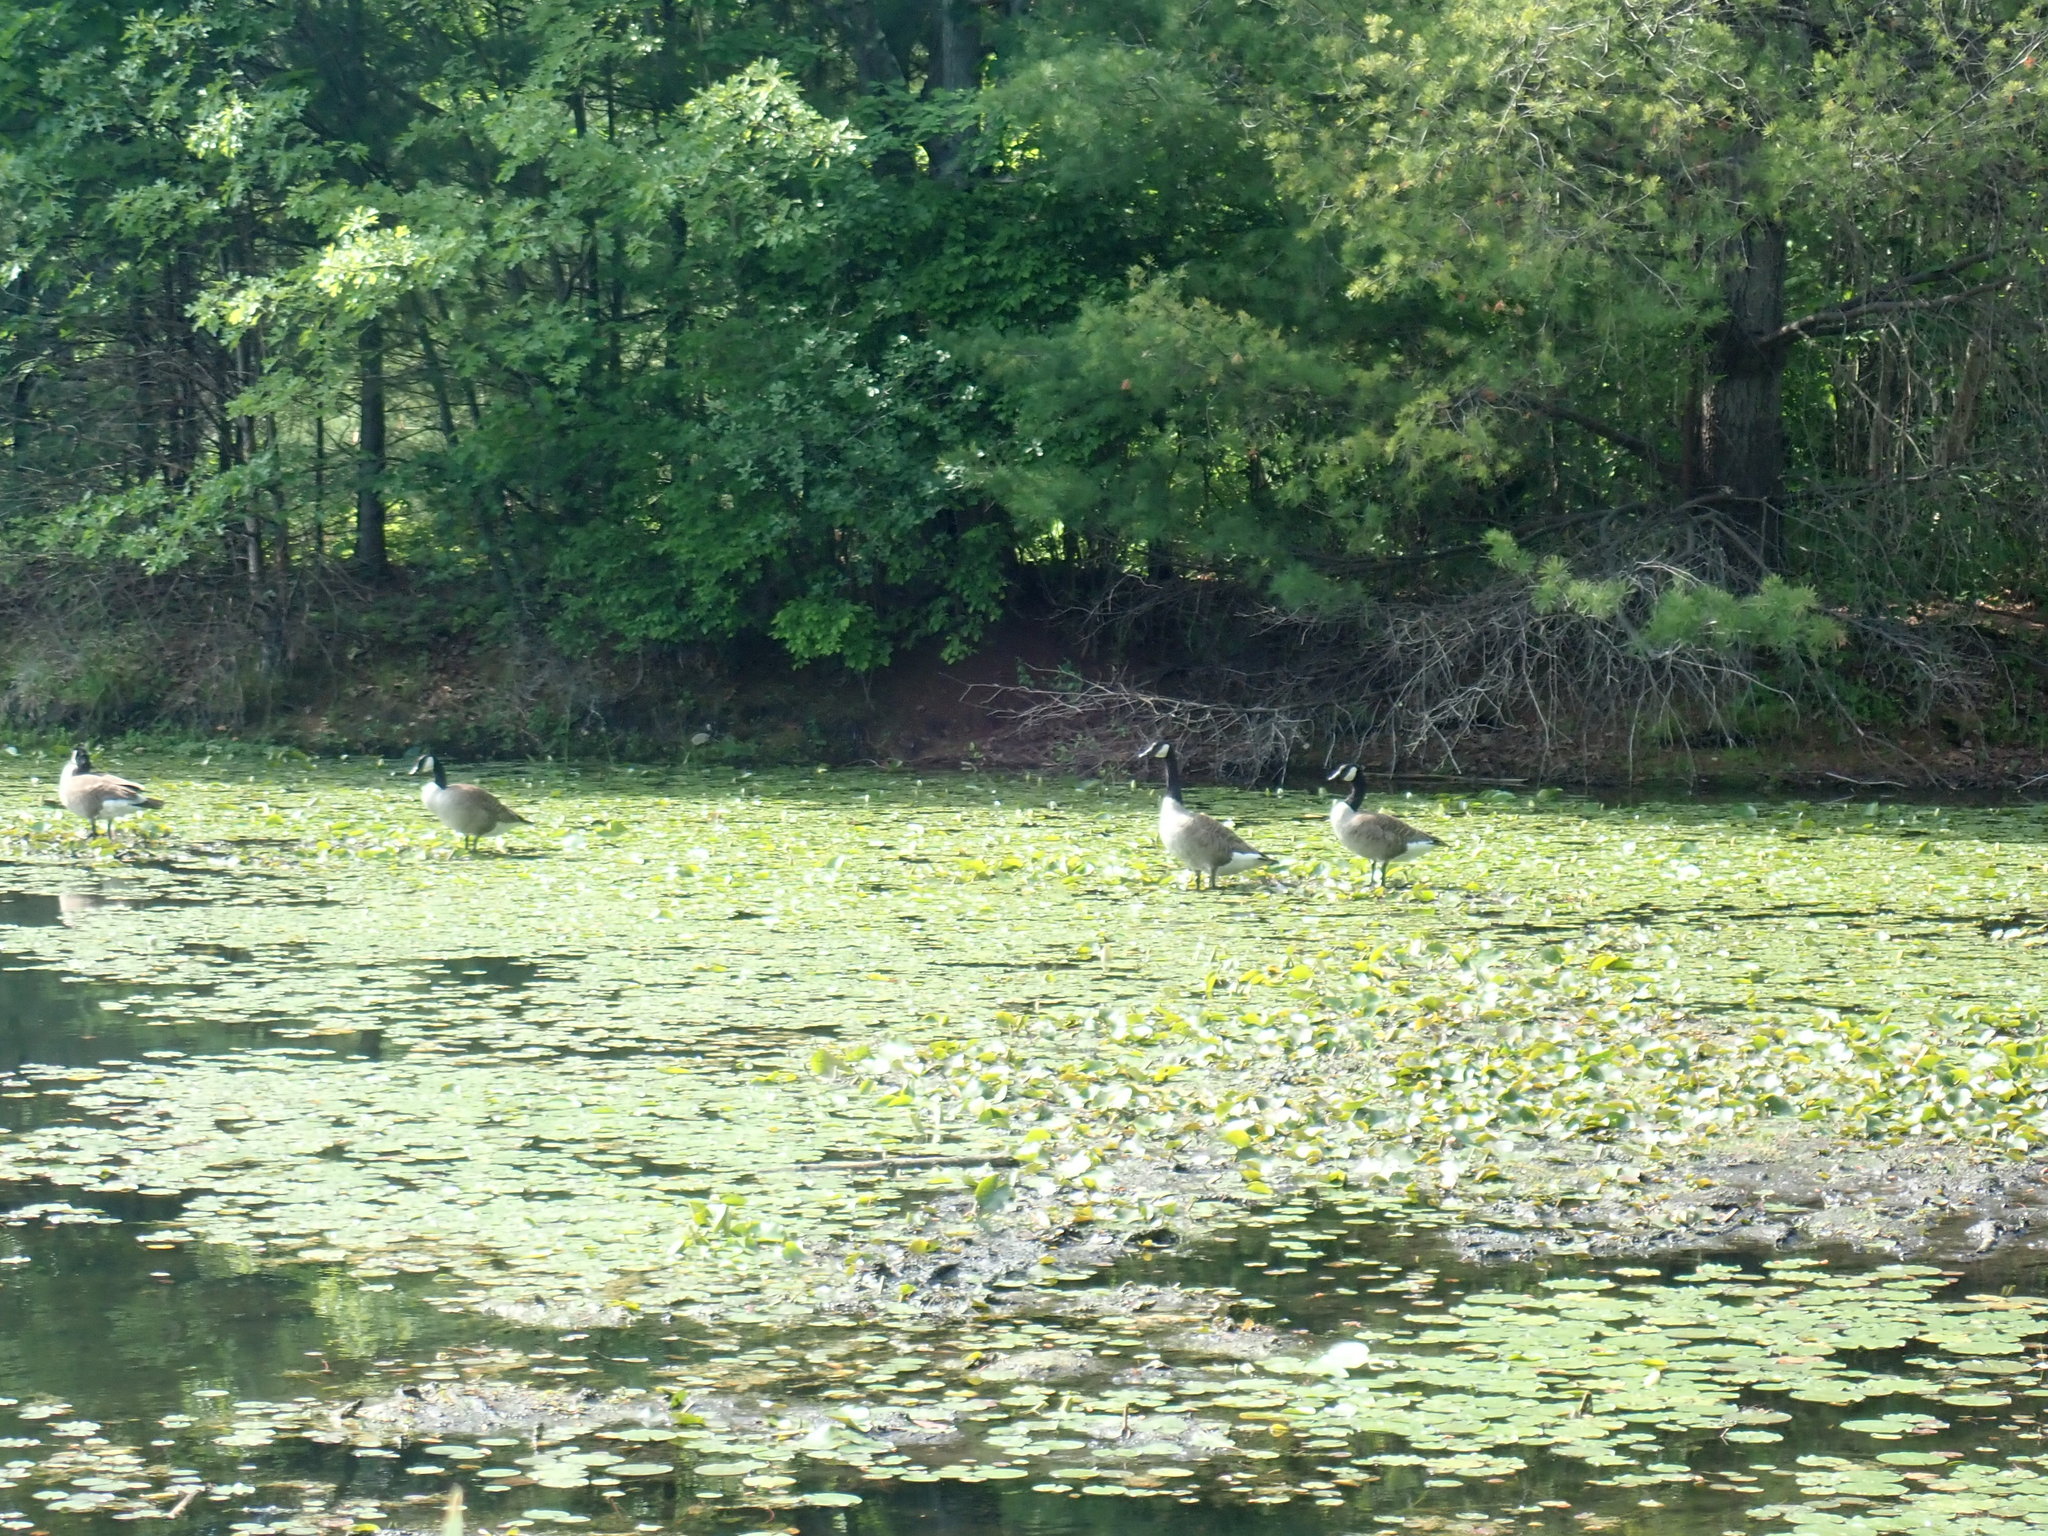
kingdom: Animalia
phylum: Chordata
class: Aves
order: Anseriformes
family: Anatidae
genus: Branta
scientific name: Branta canadensis
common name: Canada goose
